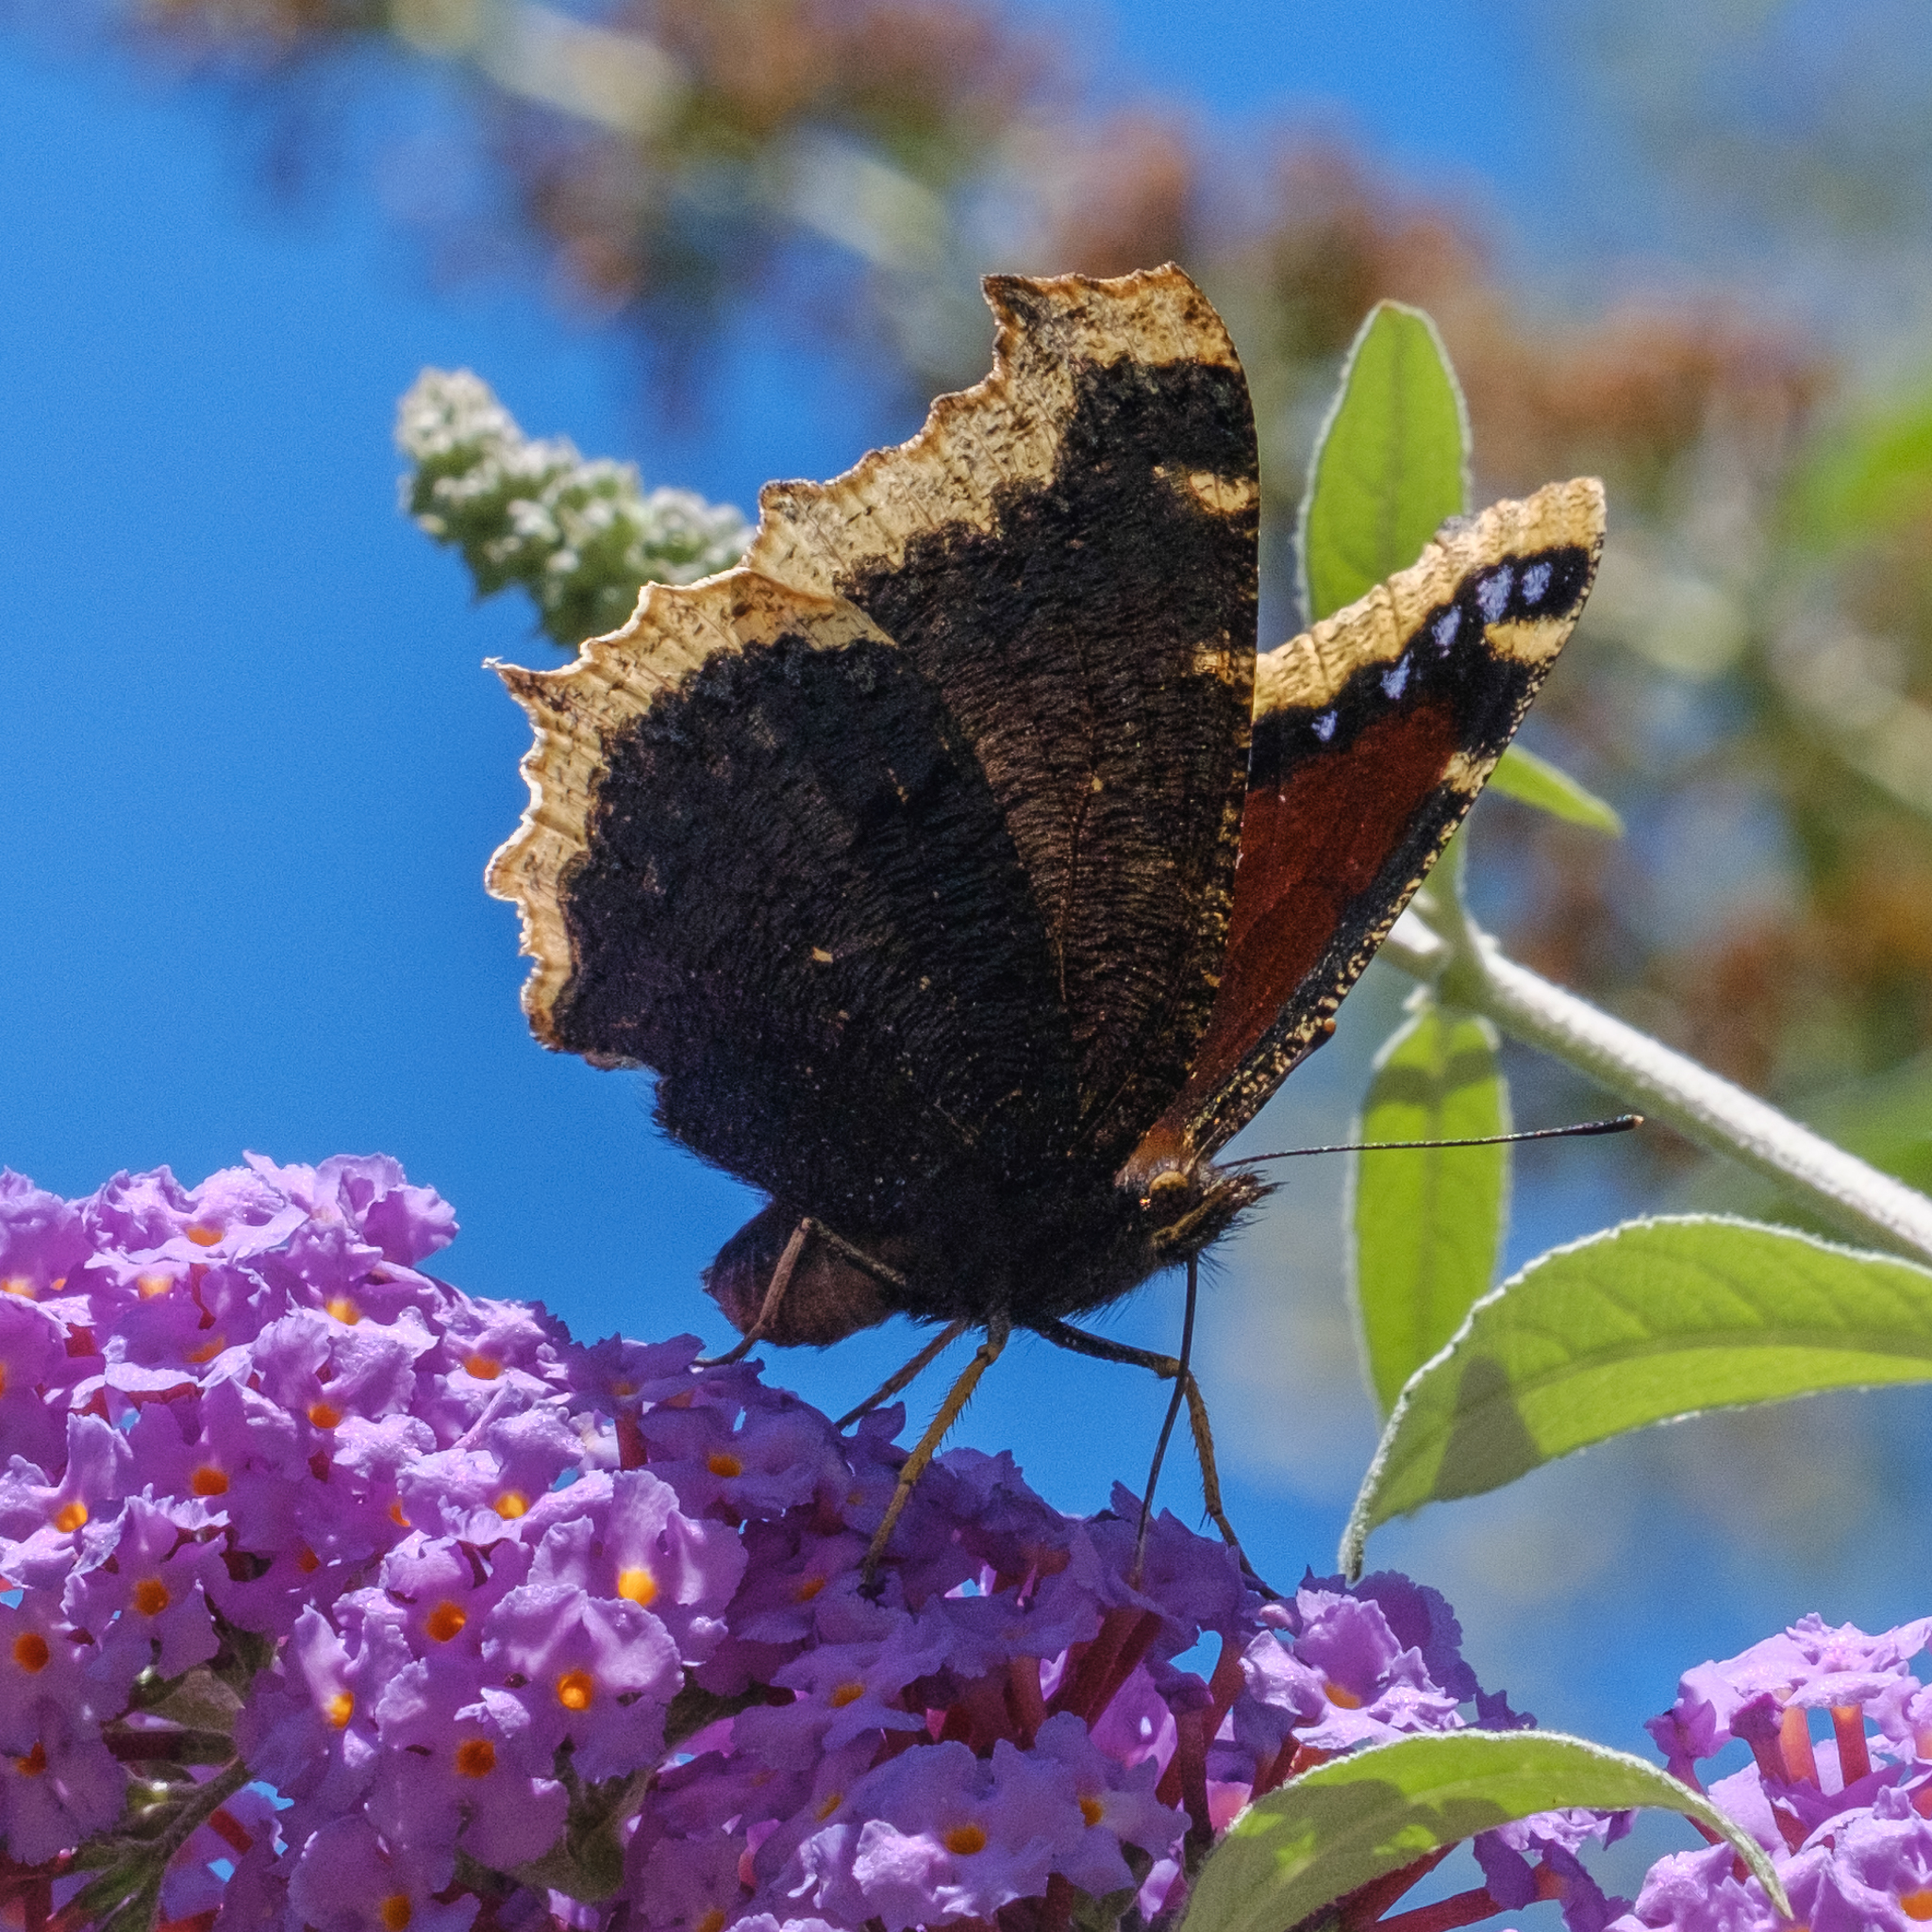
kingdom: Animalia
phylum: Arthropoda
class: Insecta
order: Lepidoptera
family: Nymphalidae
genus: Nymphalis
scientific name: Nymphalis antiopa
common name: Camberwell beauty
